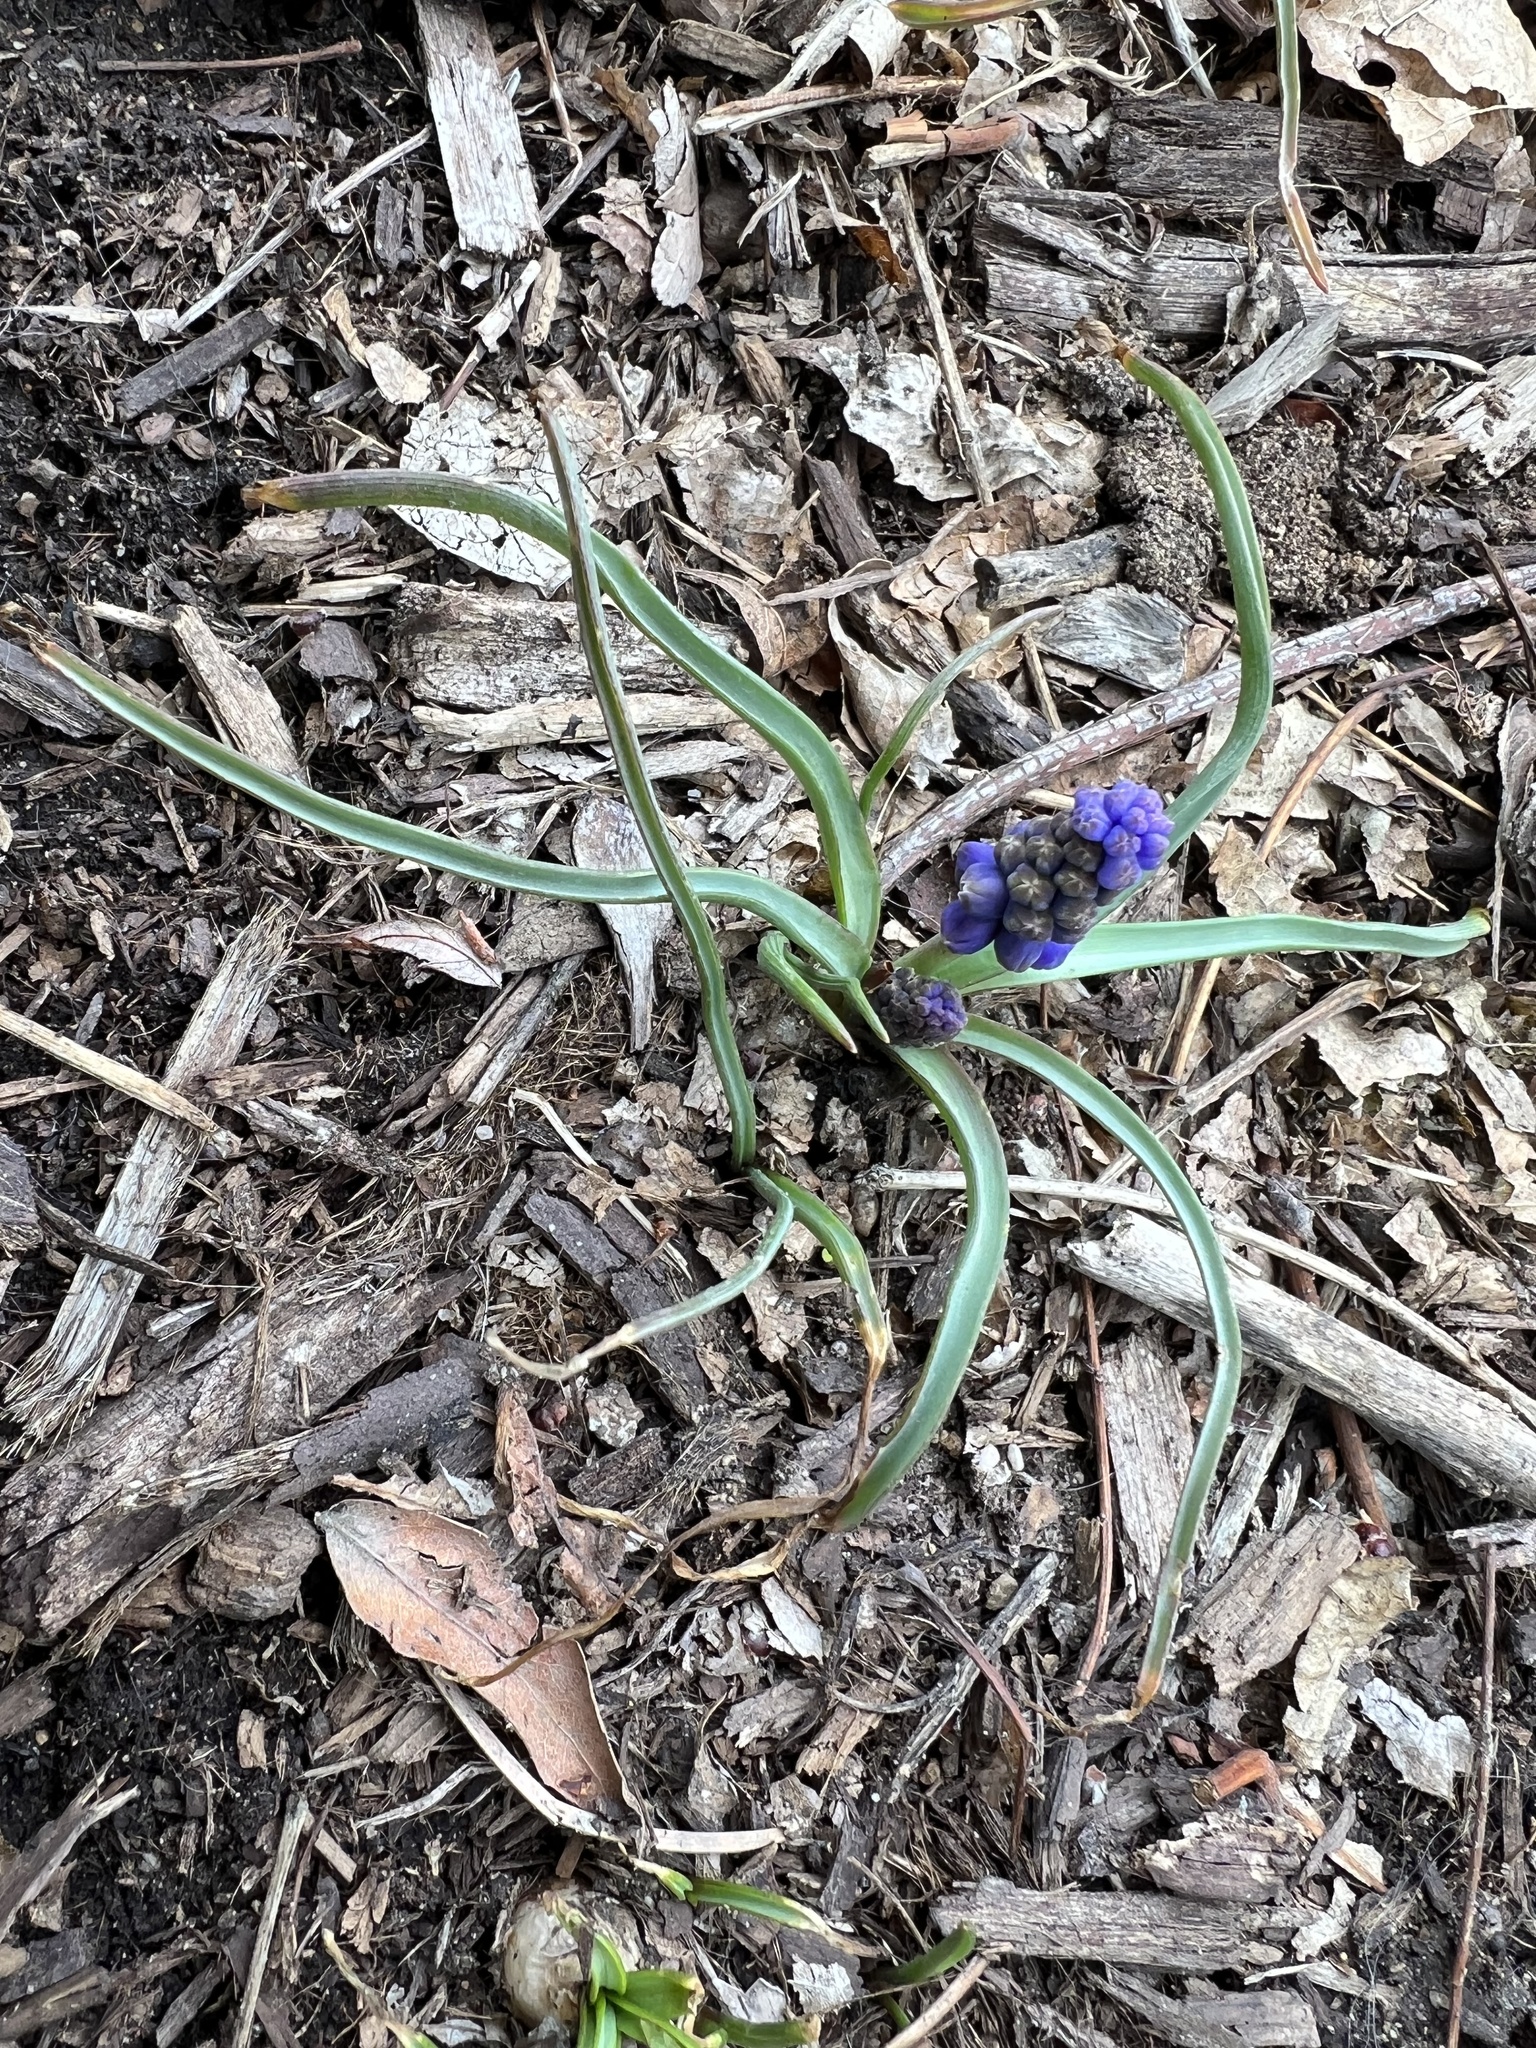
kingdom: Plantae
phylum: Tracheophyta
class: Liliopsida
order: Asparagales
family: Asparagaceae
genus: Muscari
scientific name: Muscari neglectum
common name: Grape-hyacinth
